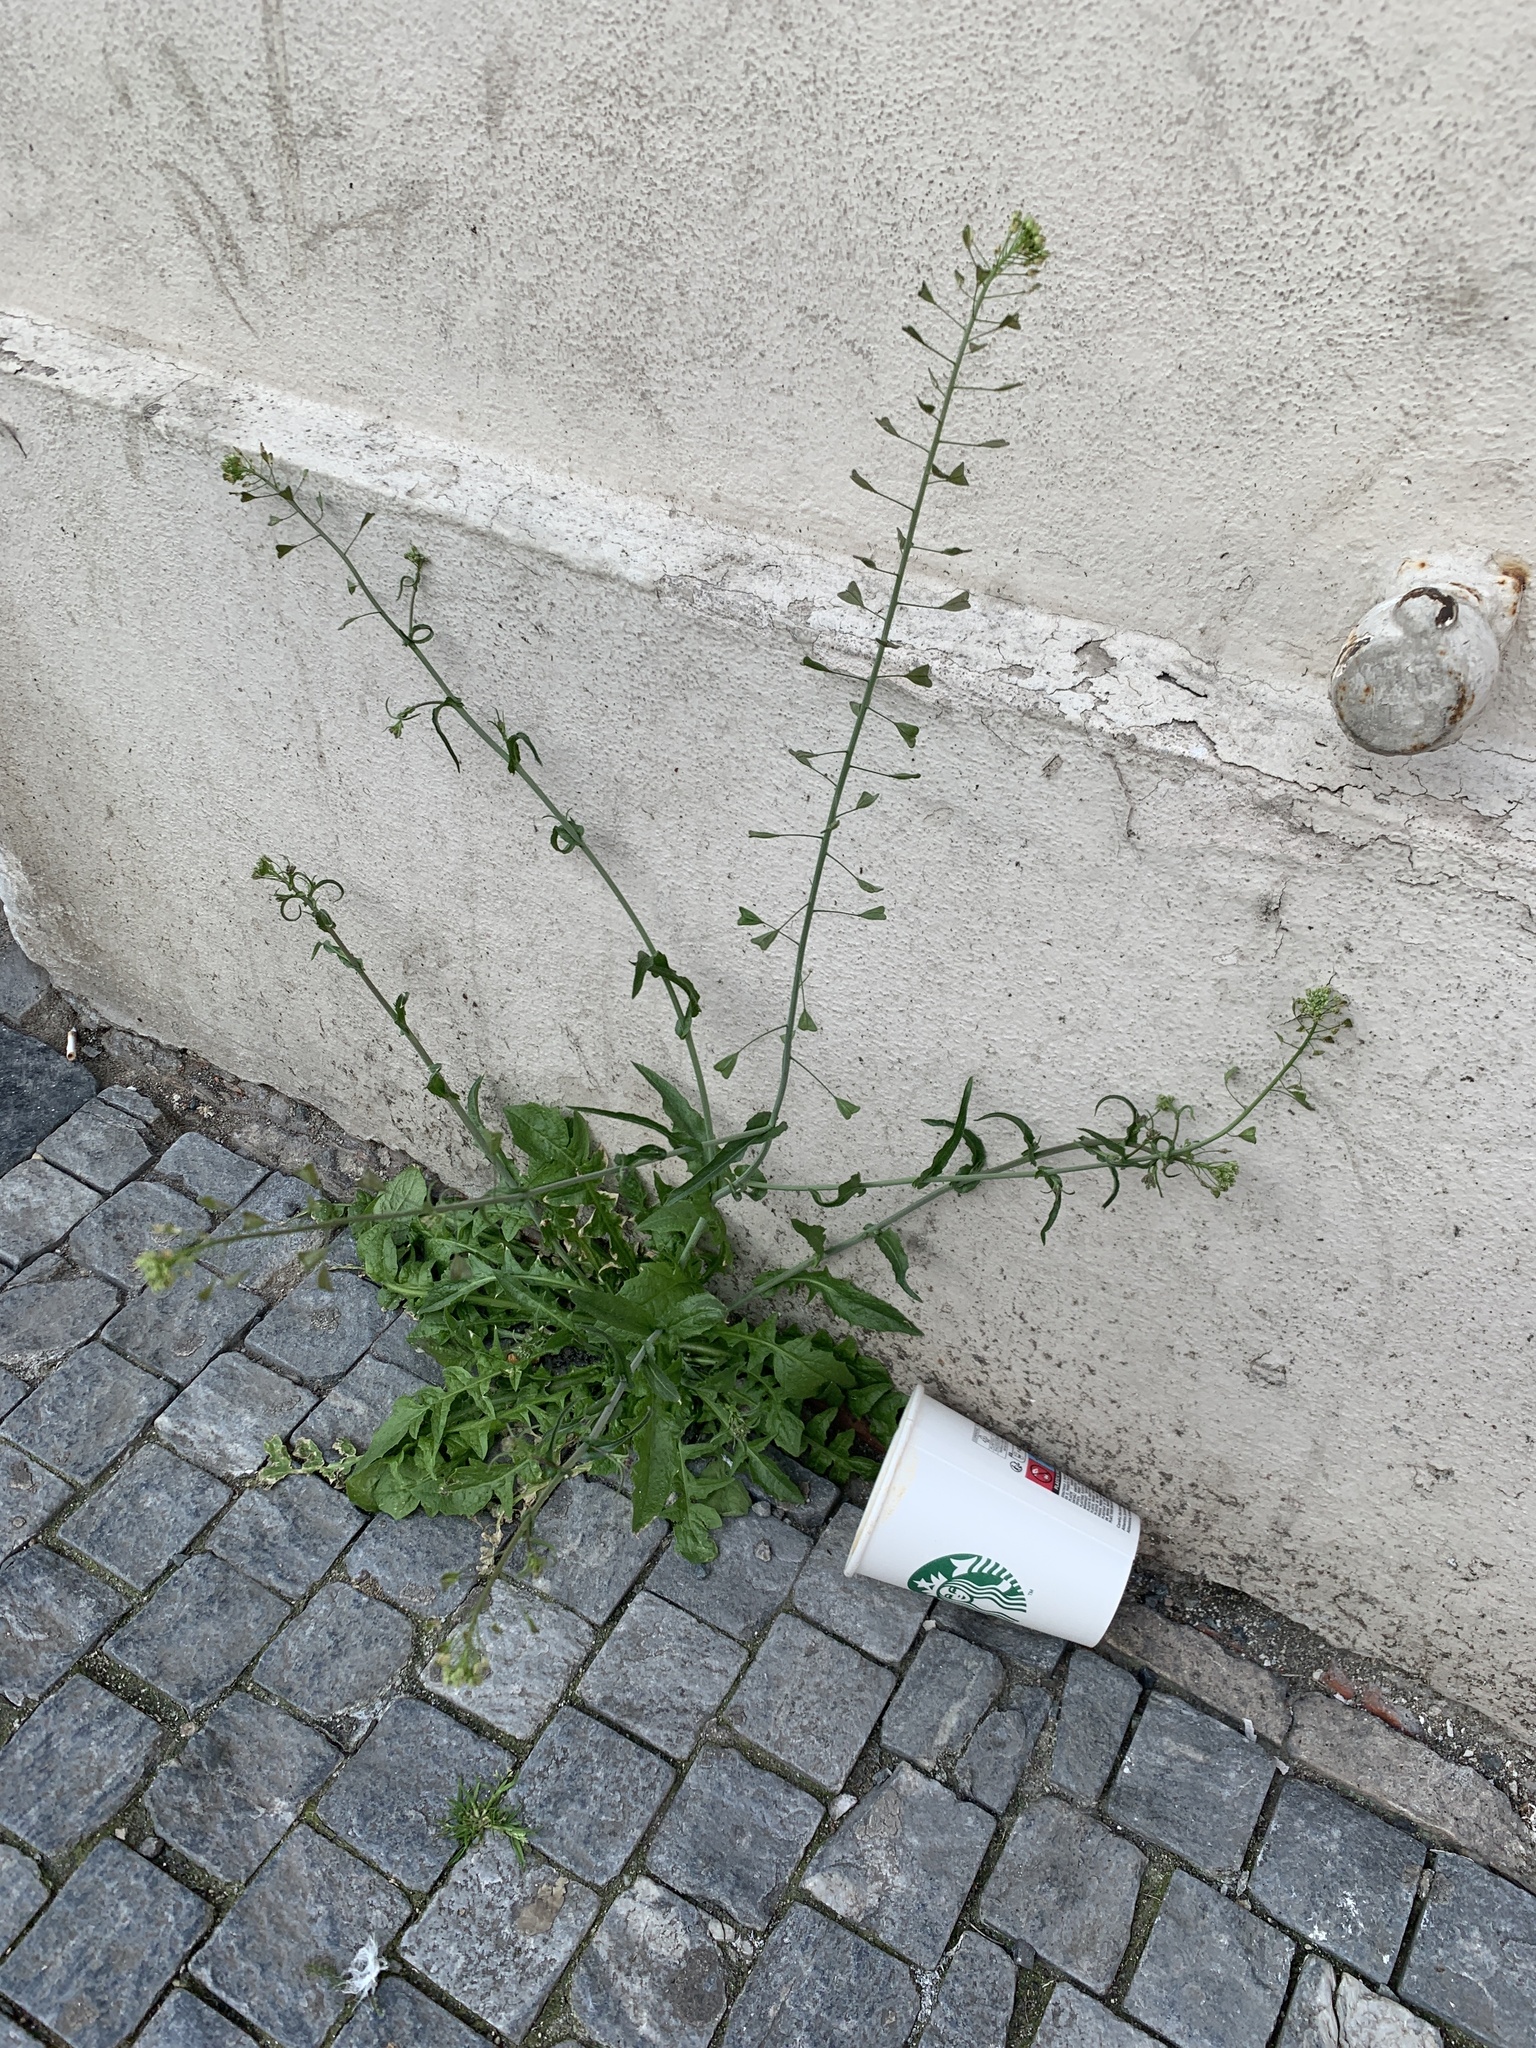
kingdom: Plantae
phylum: Tracheophyta
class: Magnoliopsida
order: Brassicales
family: Brassicaceae
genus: Capsella
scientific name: Capsella bursa-pastoris
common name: Shepherd's purse
